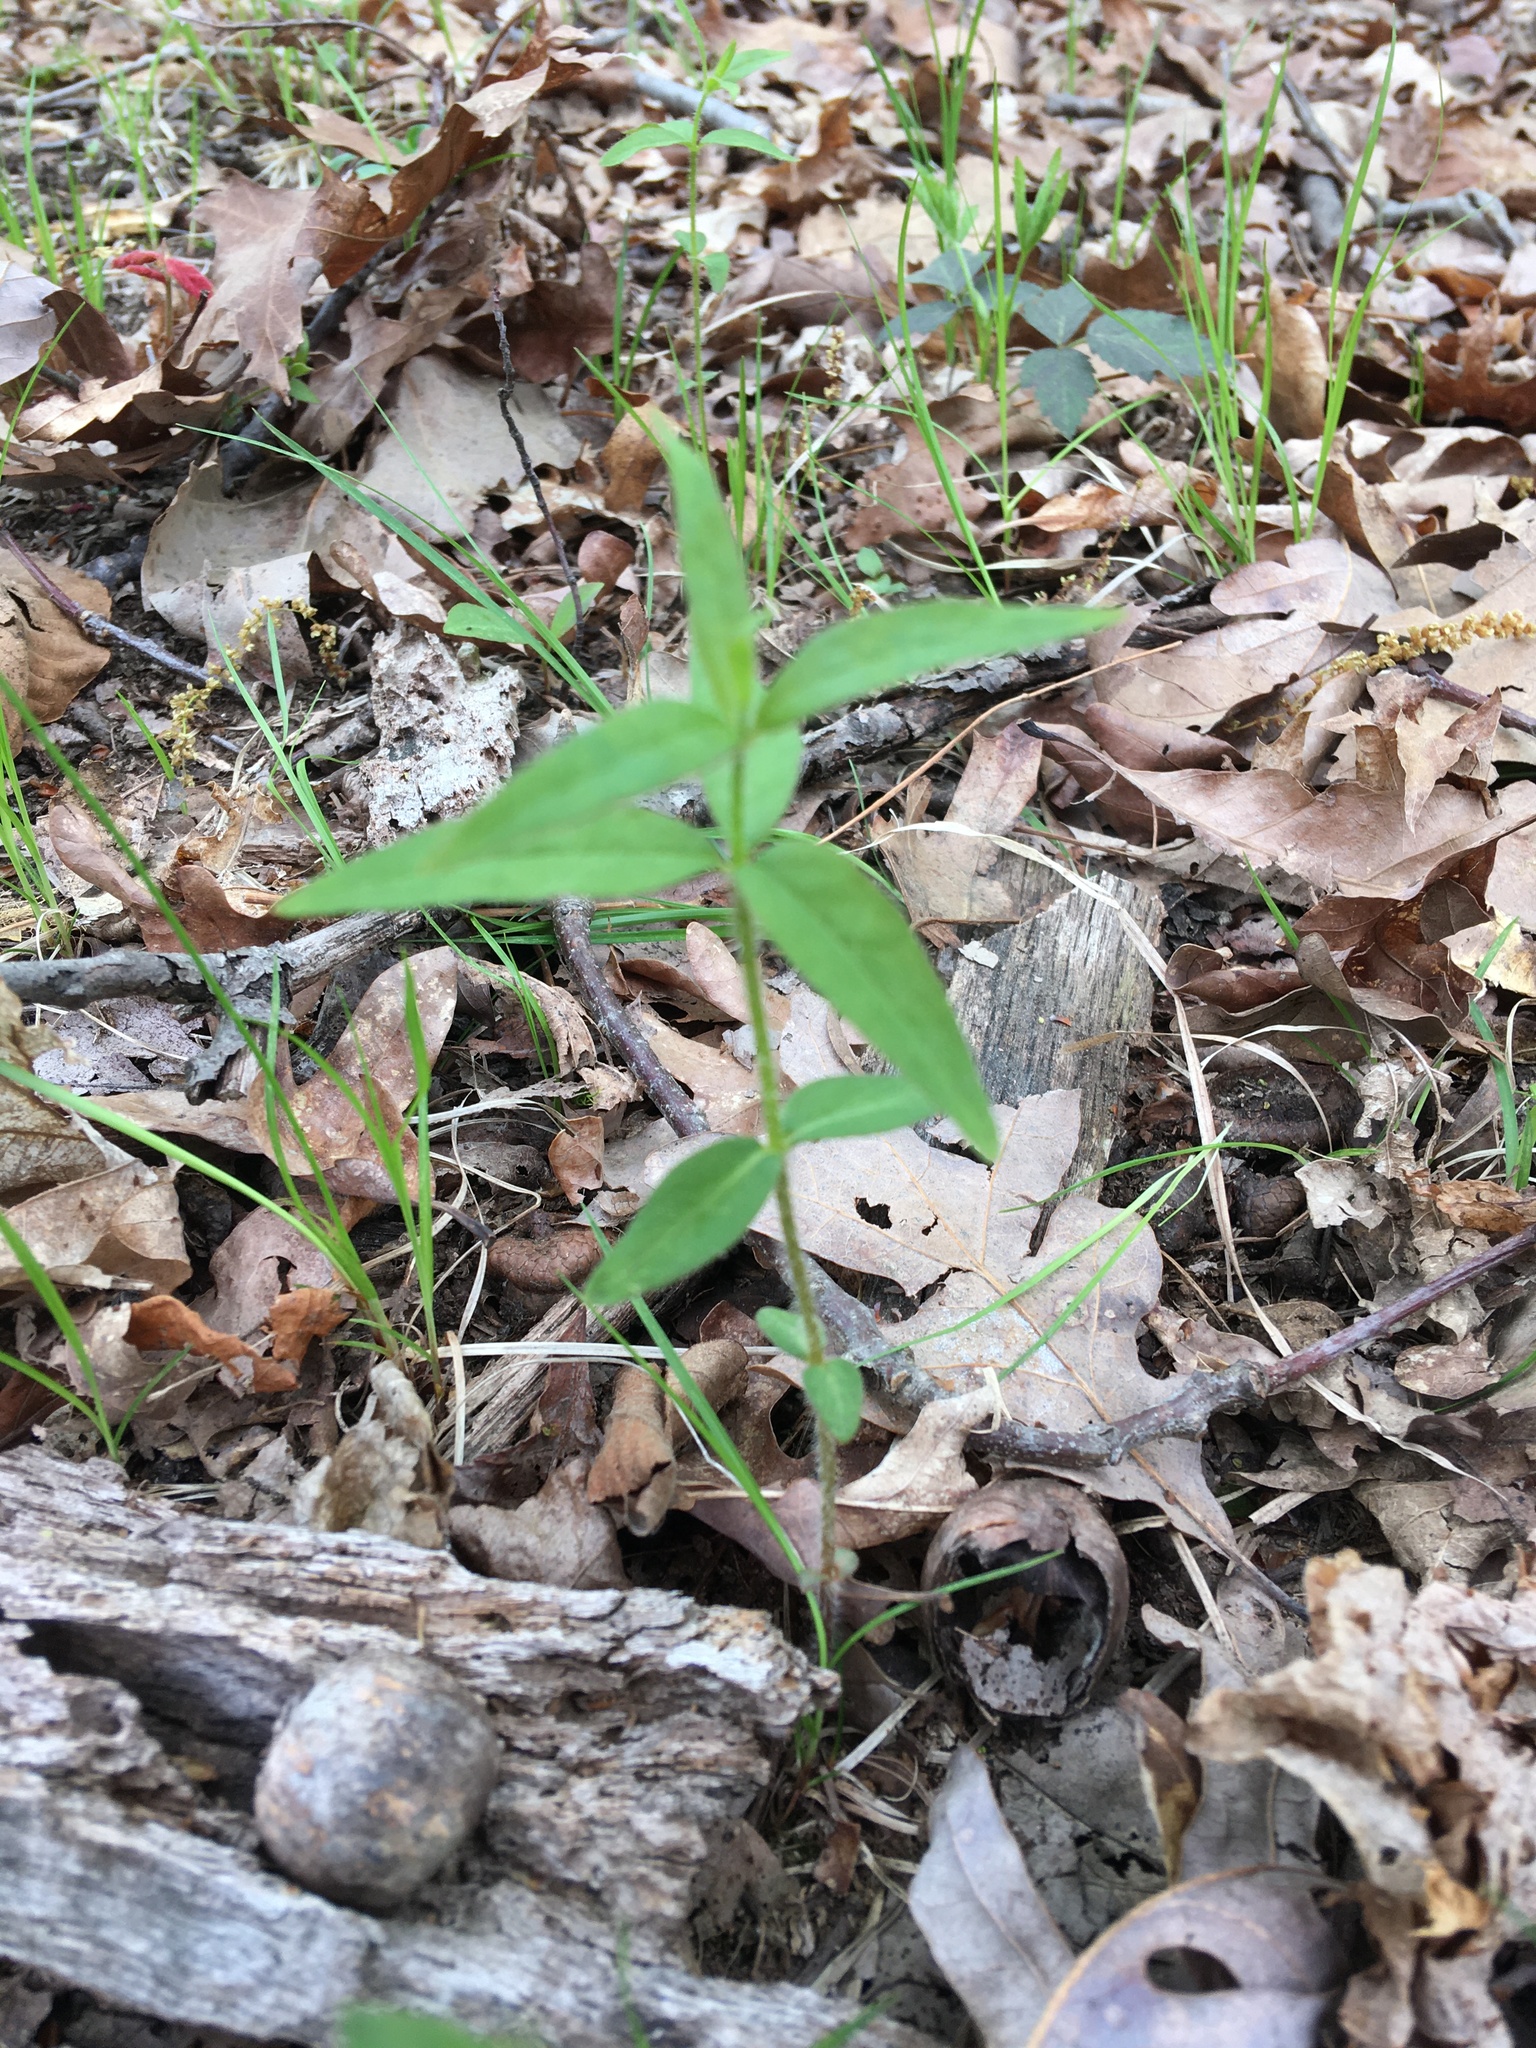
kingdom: Plantae
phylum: Tracheophyta
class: Magnoliopsida
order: Ericales
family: Primulaceae
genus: Lysimachia
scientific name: Lysimachia quadrifolia
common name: Whorled loosestrife
